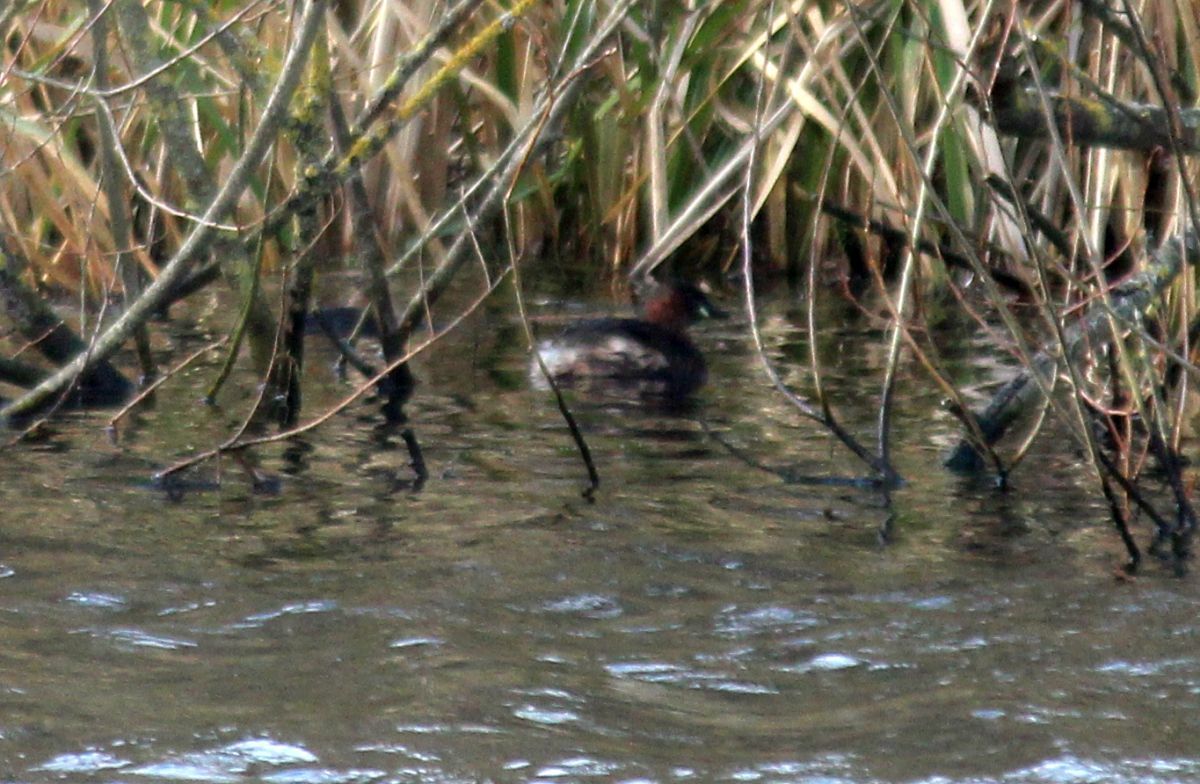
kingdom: Animalia
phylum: Chordata
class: Aves
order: Podicipediformes
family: Podicipedidae
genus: Tachybaptus
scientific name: Tachybaptus ruficollis
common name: Little grebe
